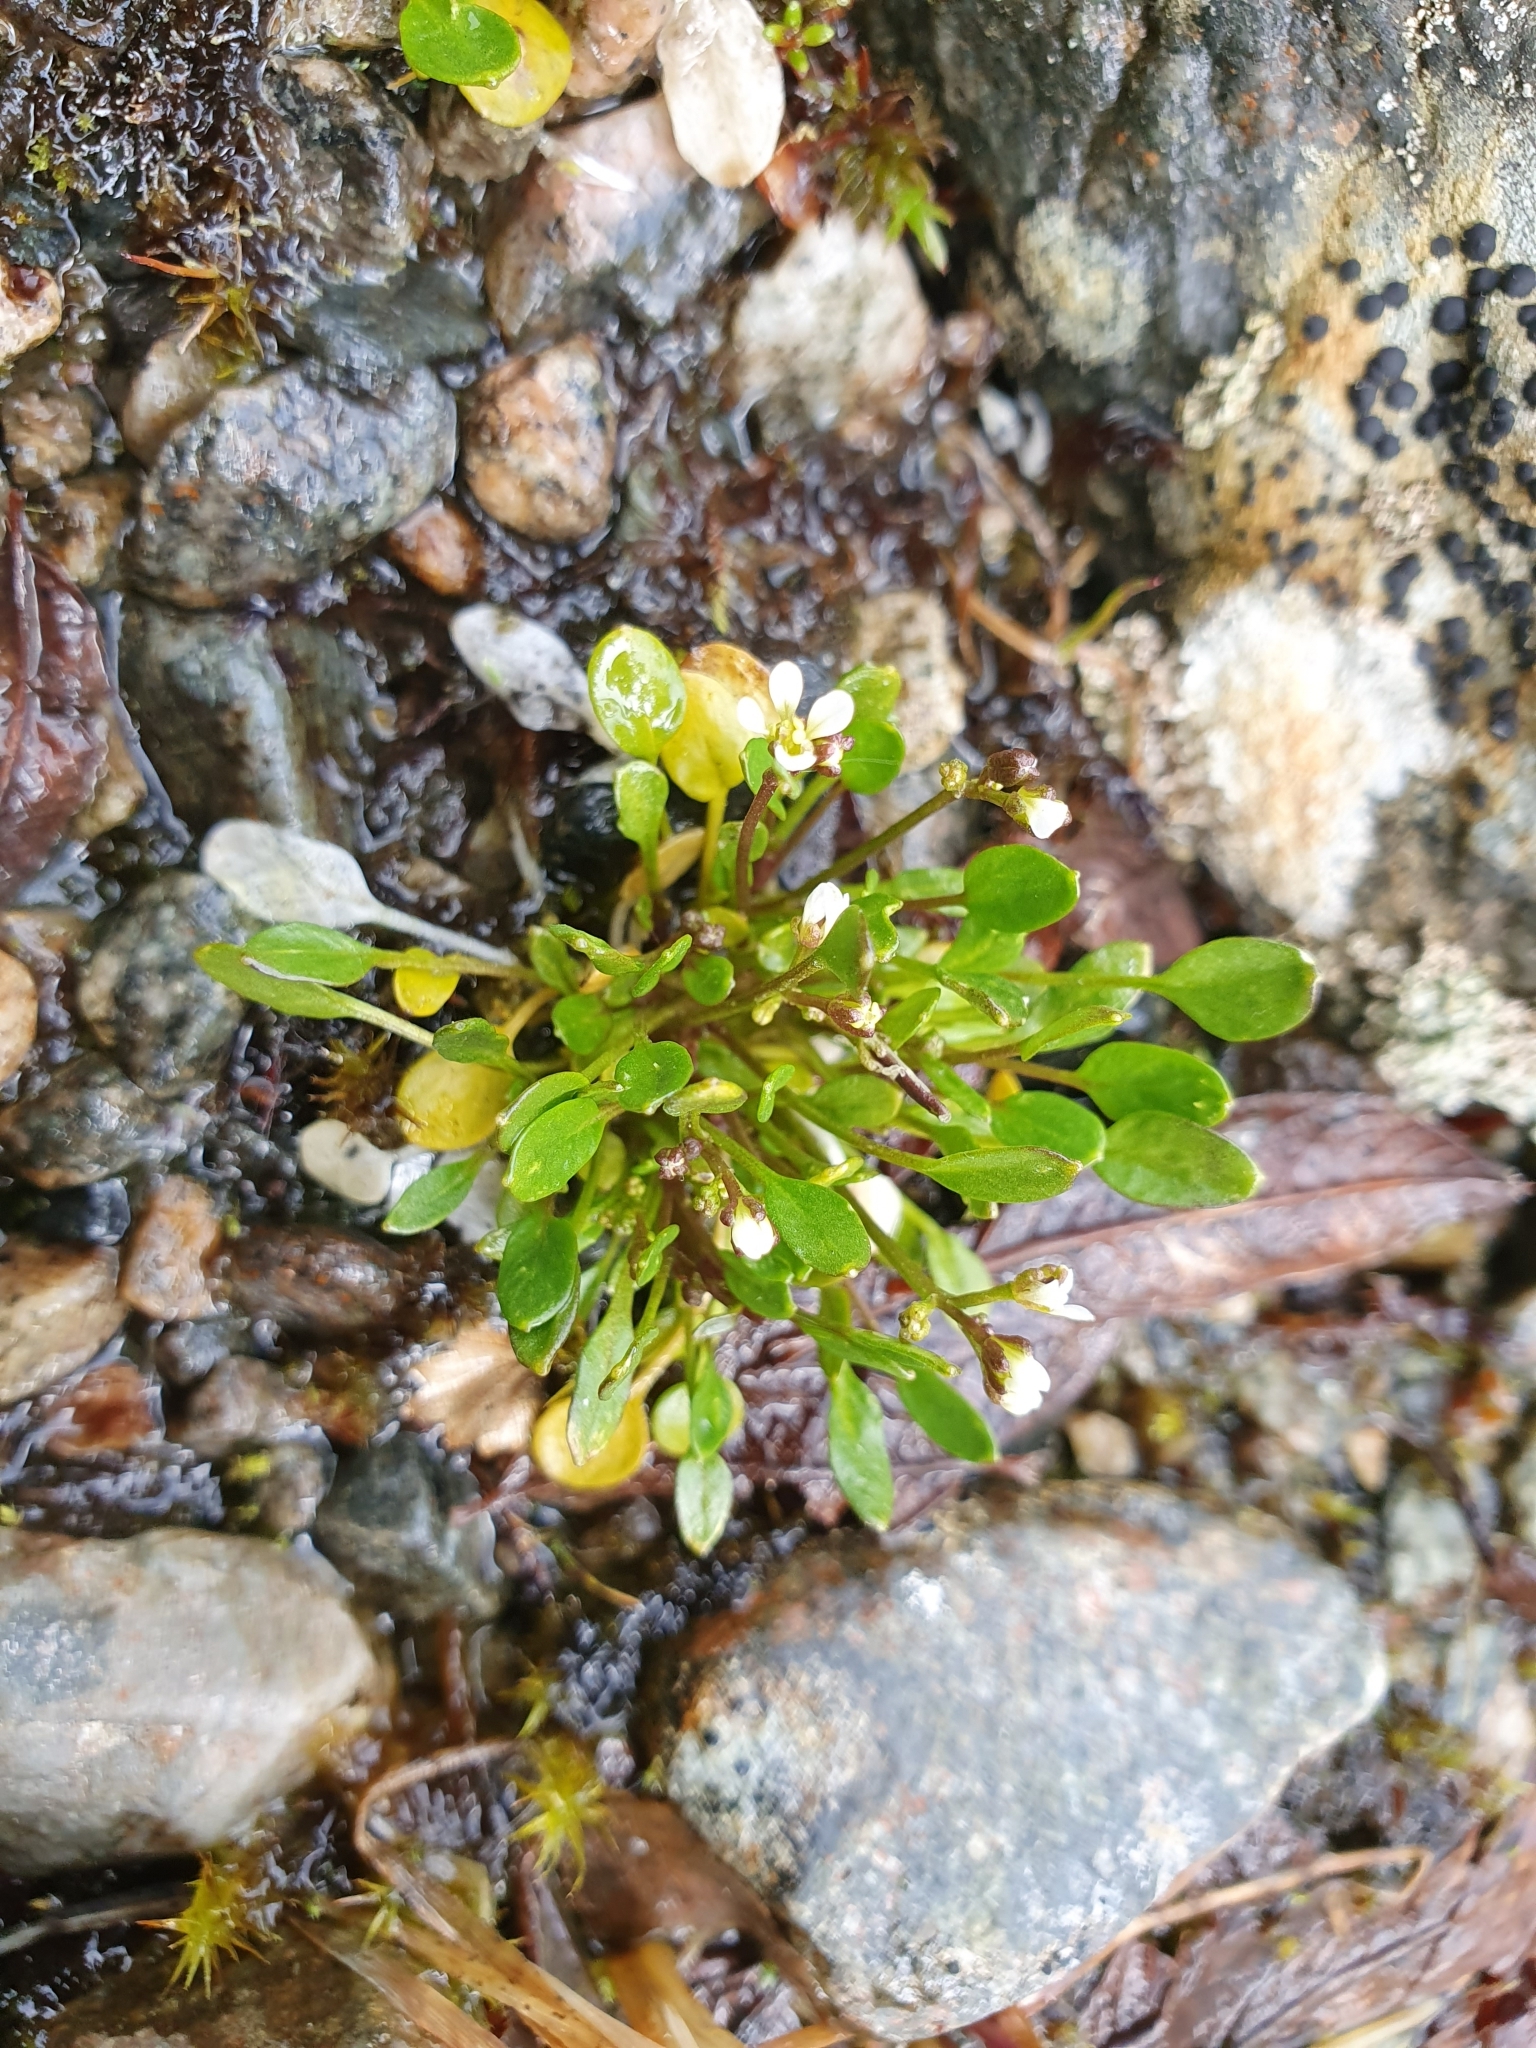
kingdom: Plantae
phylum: Tracheophyta
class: Magnoliopsida
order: Brassicales
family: Brassicaceae
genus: Cardamine
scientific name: Cardamine bellidifolia
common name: Alpine bittercress
